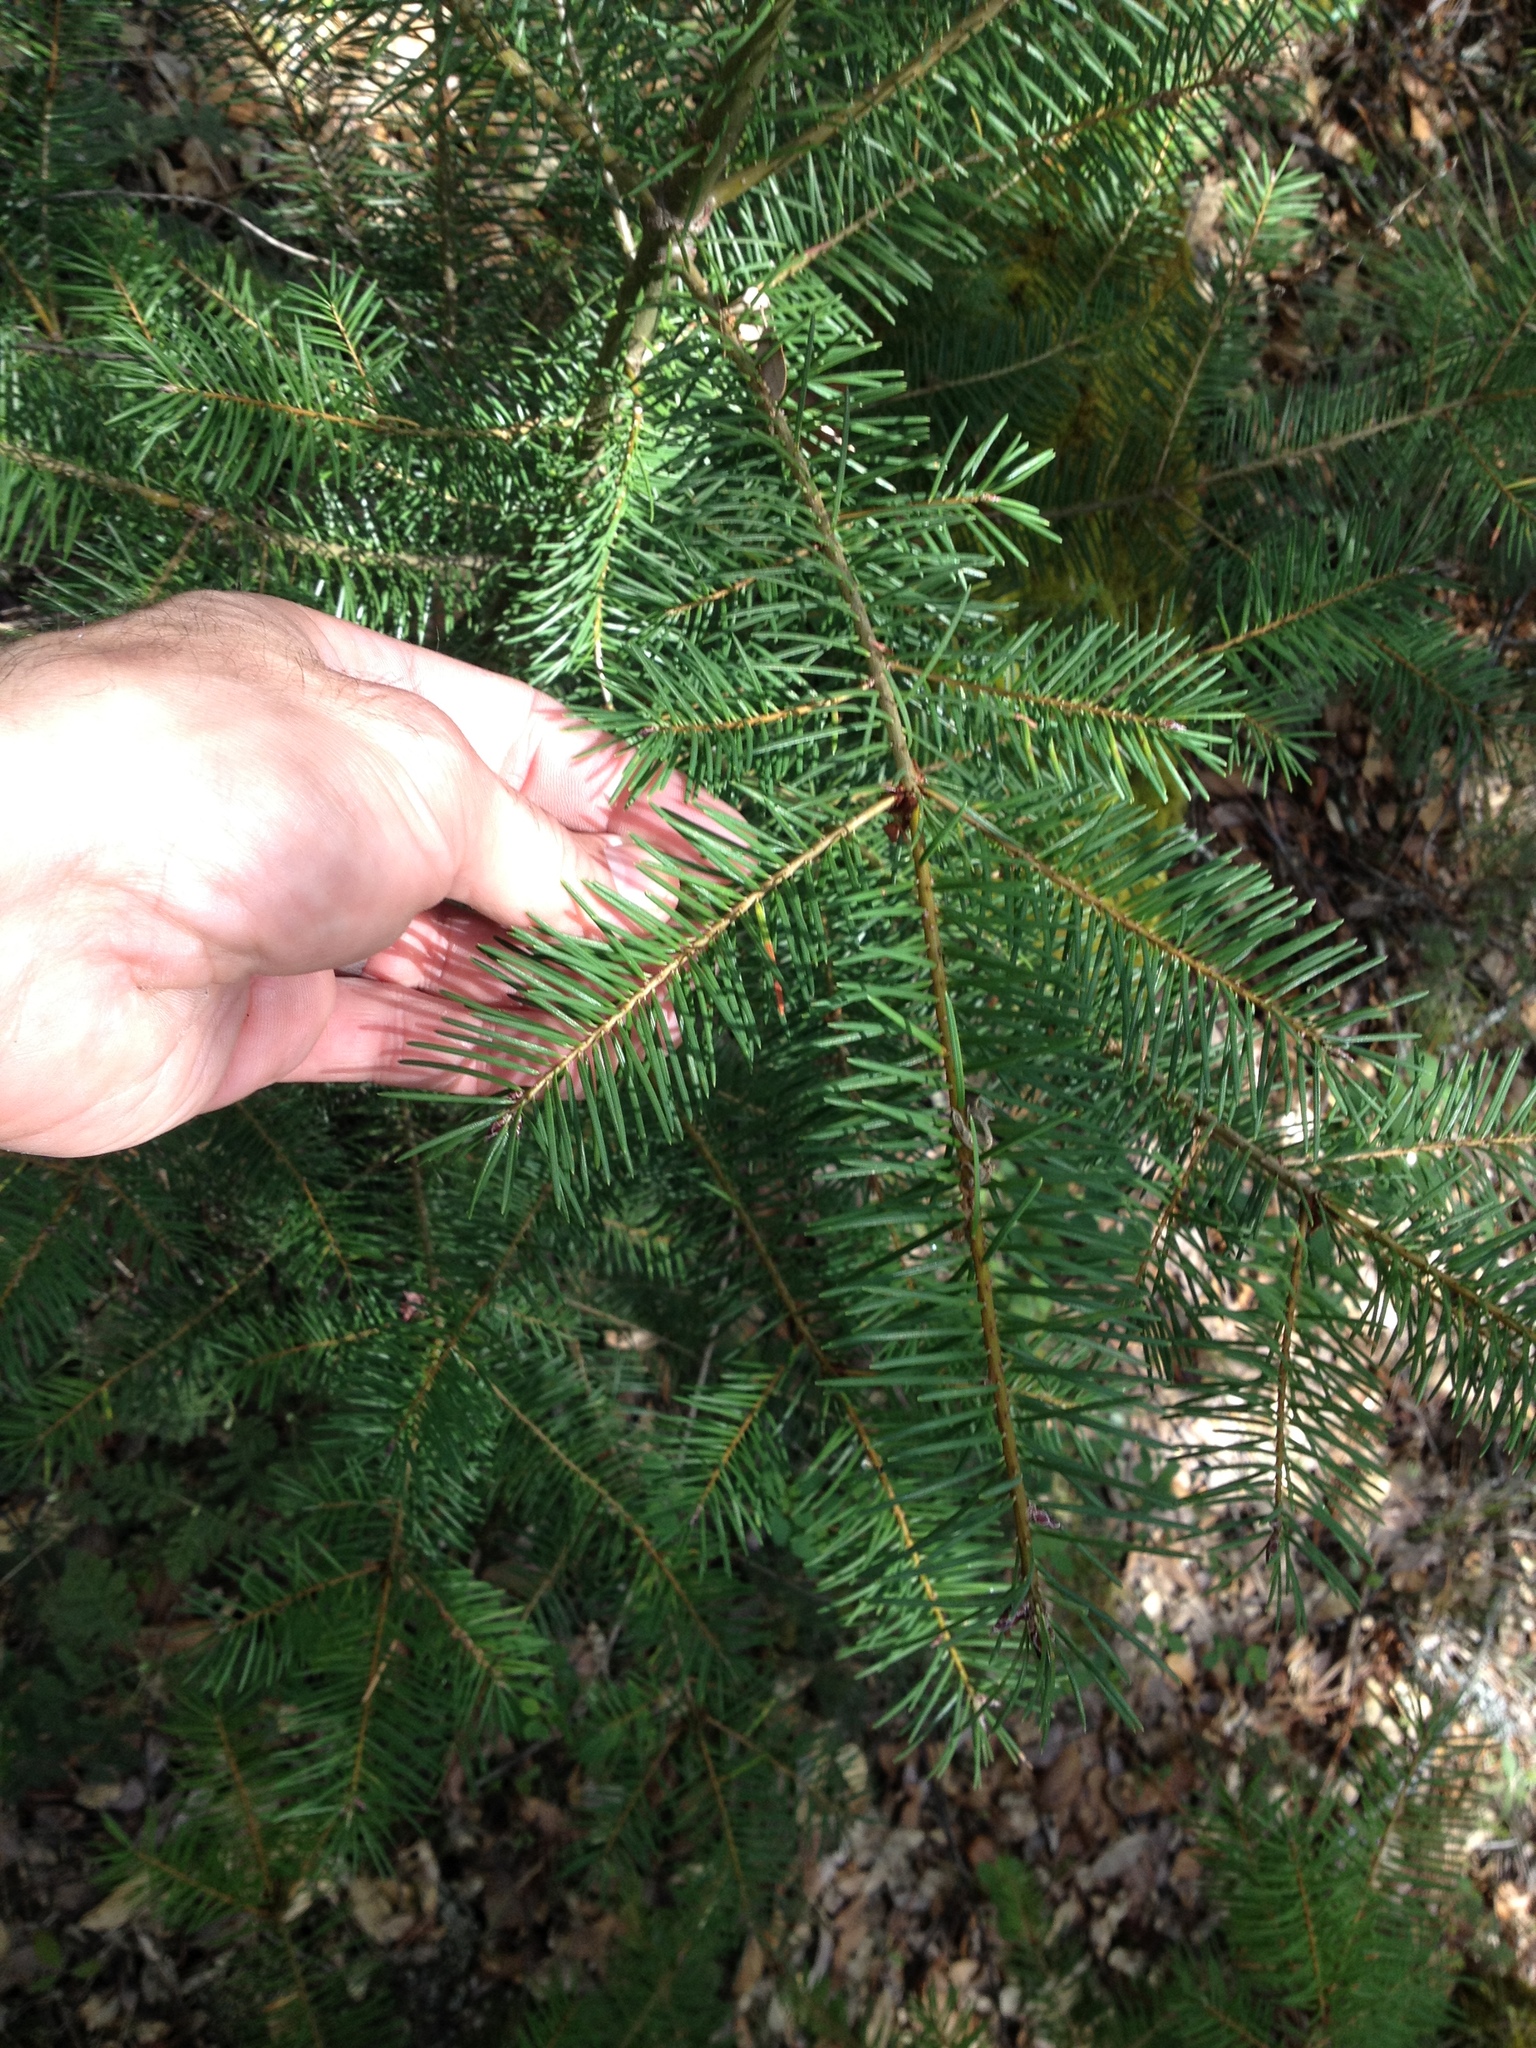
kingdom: Plantae
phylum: Tracheophyta
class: Pinopsida
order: Pinales
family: Pinaceae
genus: Pseudotsuga
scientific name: Pseudotsuga menziesii
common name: Douglas fir
